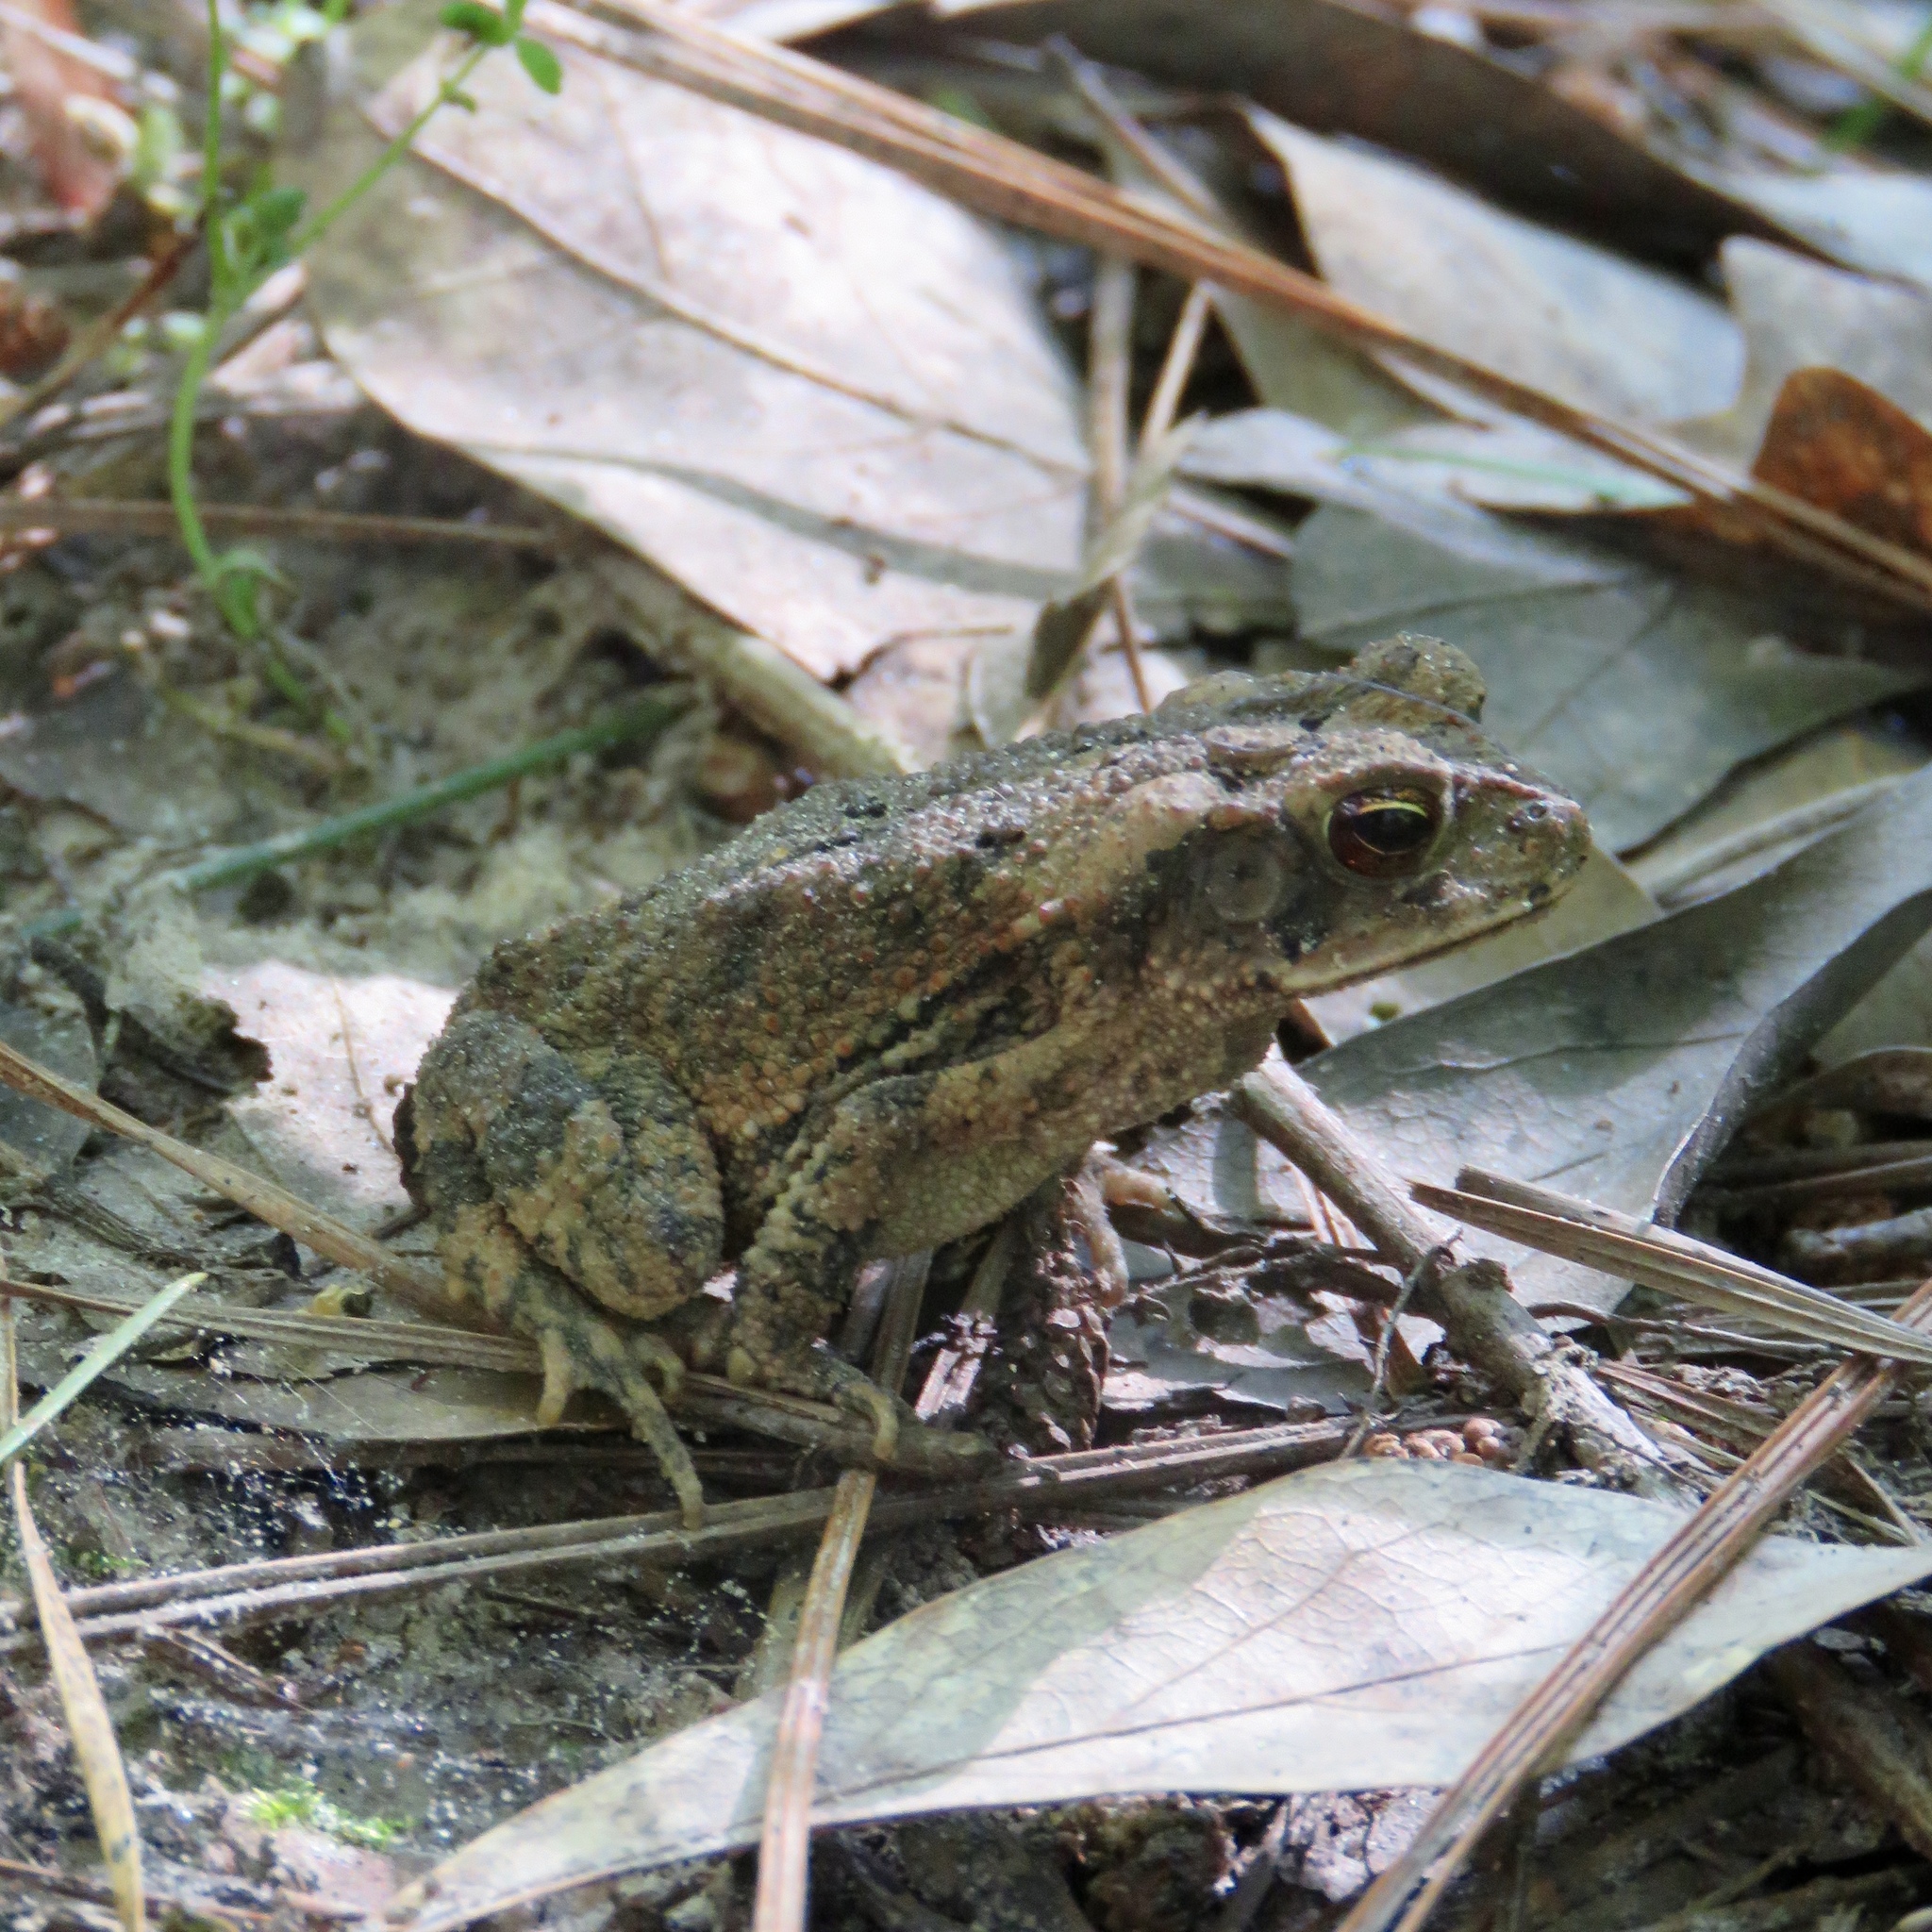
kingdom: Animalia
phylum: Chordata
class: Amphibia
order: Anura
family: Bufonidae
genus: Incilius
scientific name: Incilius nebulifer
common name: Gulf coast toad
